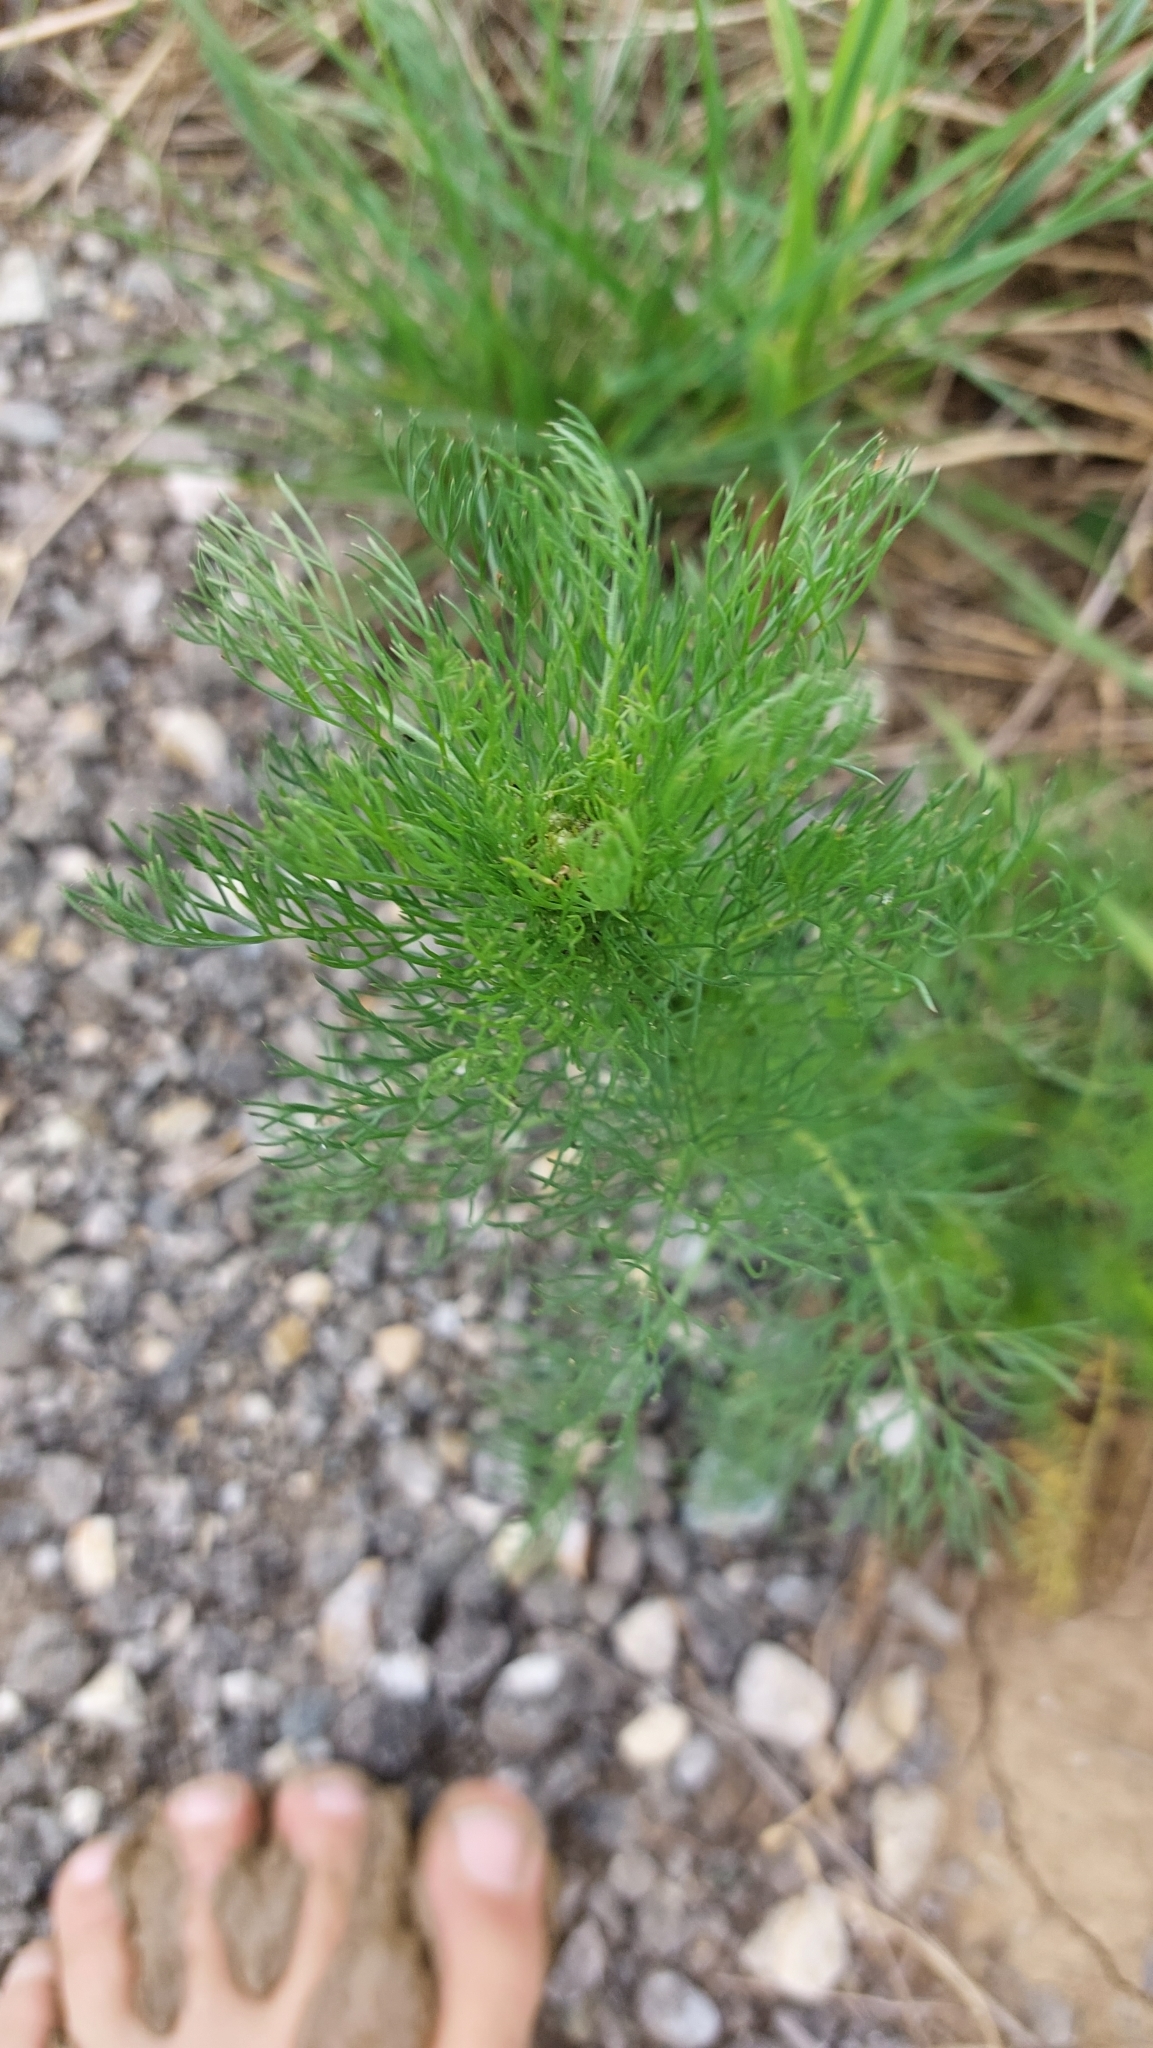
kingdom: Plantae
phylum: Tracheophyta
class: Magnoliopsida
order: Asterales
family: Asteraceae
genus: Tripleurospermum
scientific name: Tripleurospermum inodorum
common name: Scentless mayweed
